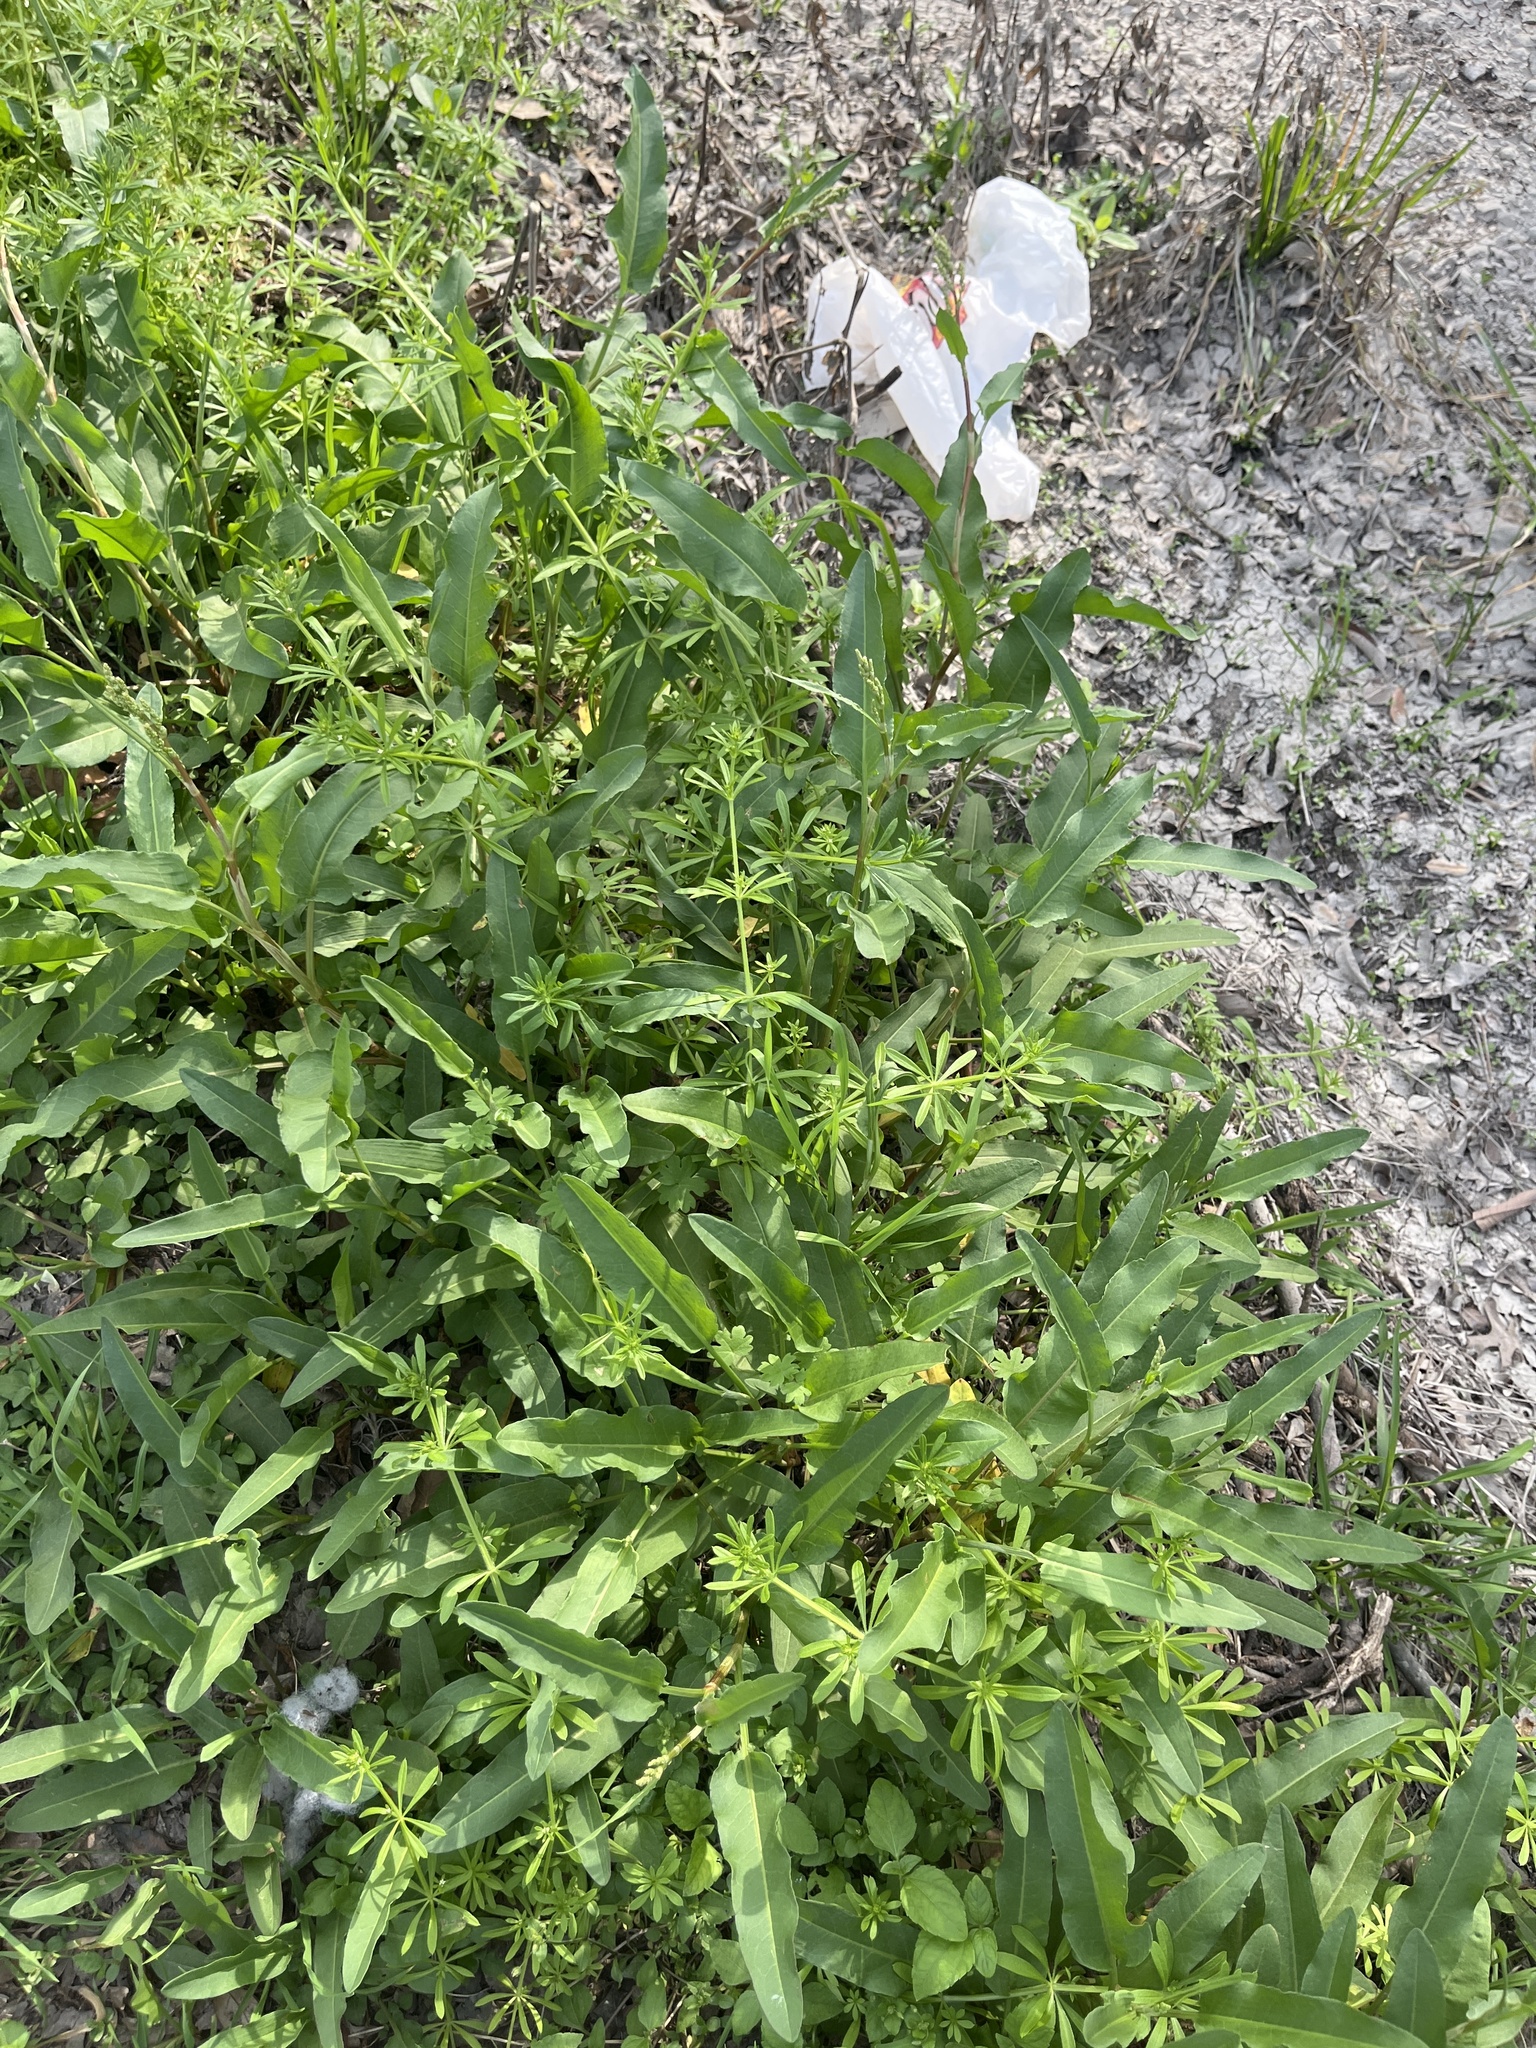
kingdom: Plantae
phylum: Tracheophyta
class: Magnoliopsida
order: Caryophyllales
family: Polygonaceae
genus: Rumex
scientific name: Rumex crispus
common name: Curled dock
